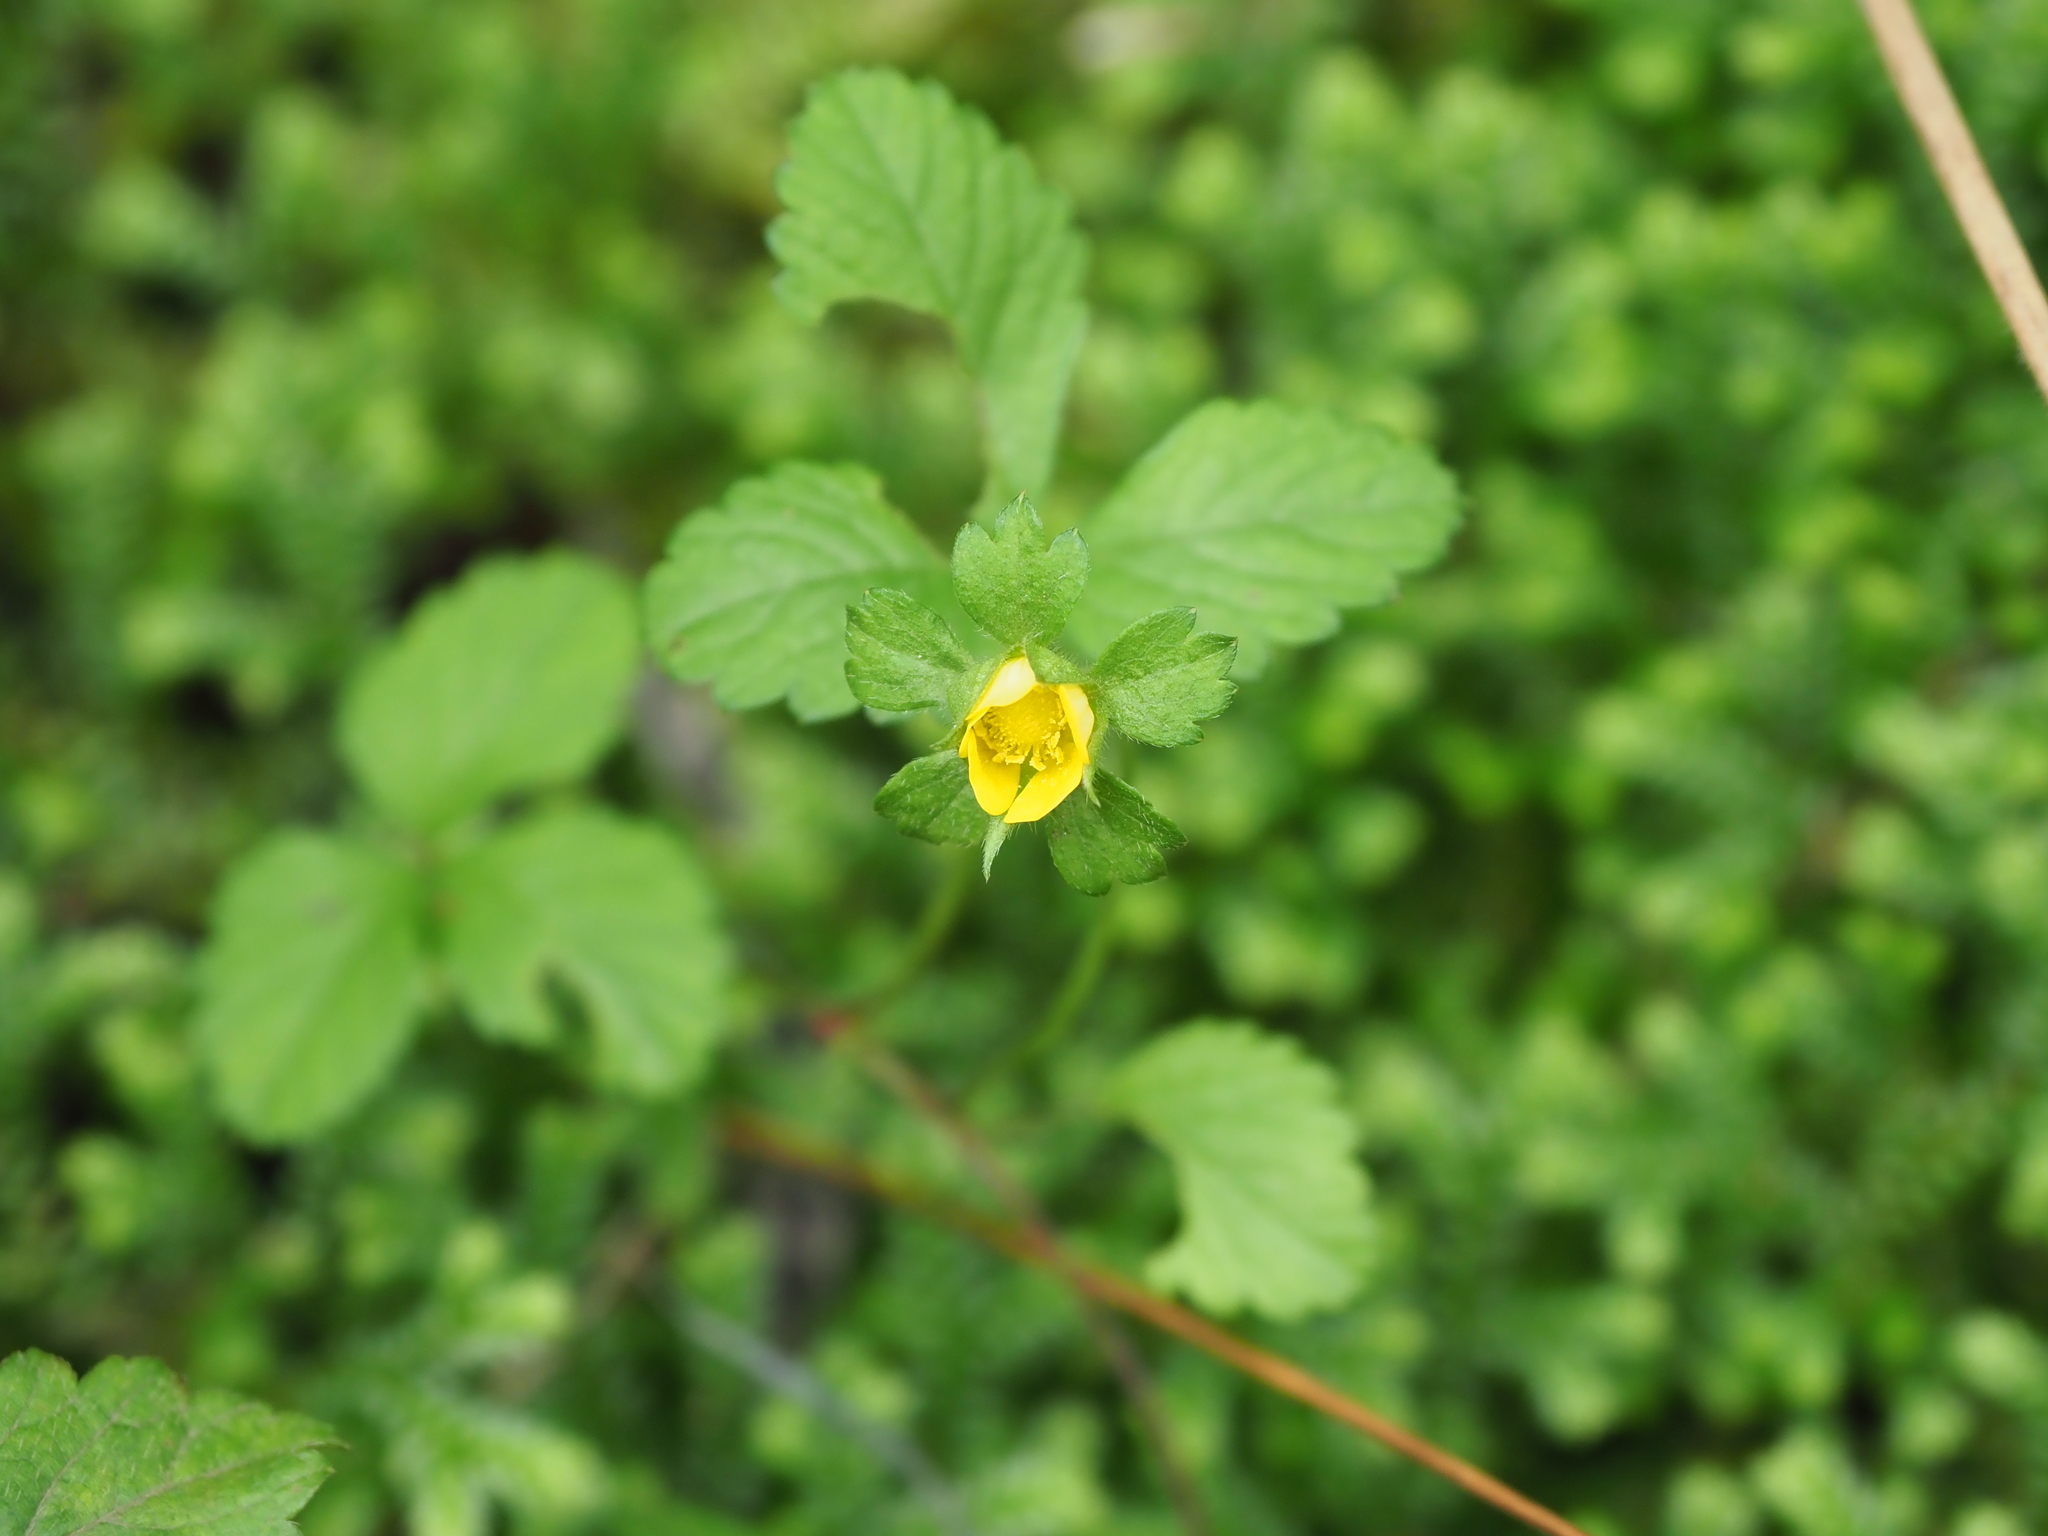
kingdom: Plantae
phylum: Tracheophyta
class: Magnoliopsida
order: Rosales
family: Rosaceae
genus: Potentilla
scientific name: Potentilla indica
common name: Yellow-flowered strawberry
